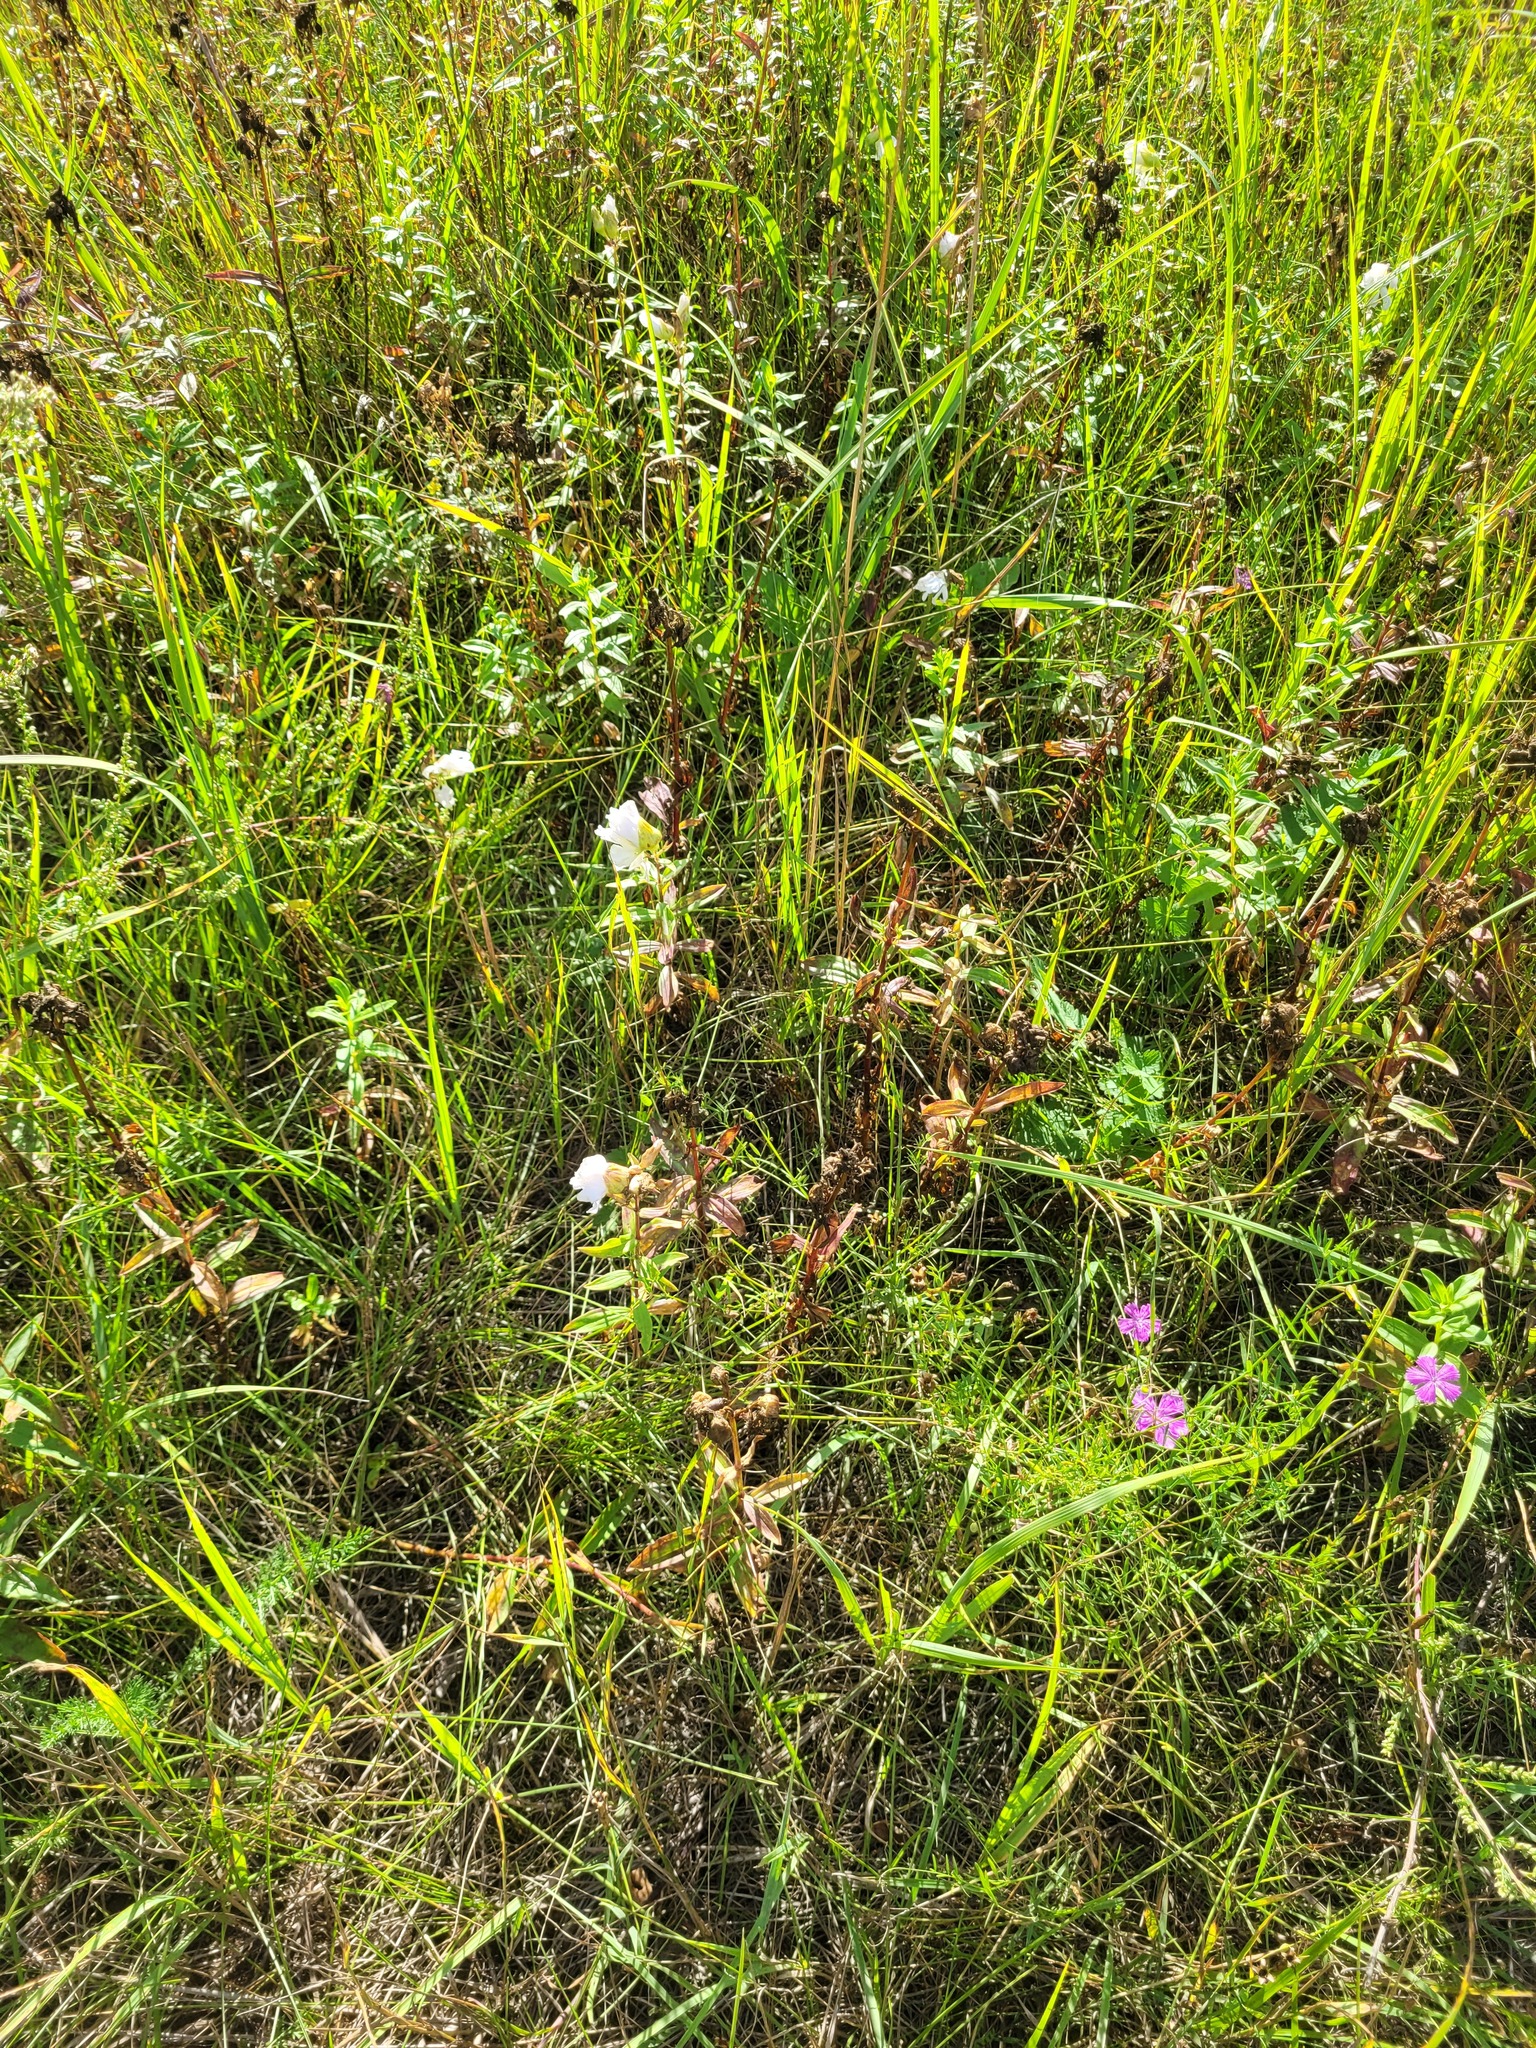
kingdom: Plantae
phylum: Tracheophyta
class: Magnoliopsida
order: Caryophyllales
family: Caryophyllaceae
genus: Saponaria
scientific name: Saponaria officinalis
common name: Soapwort
